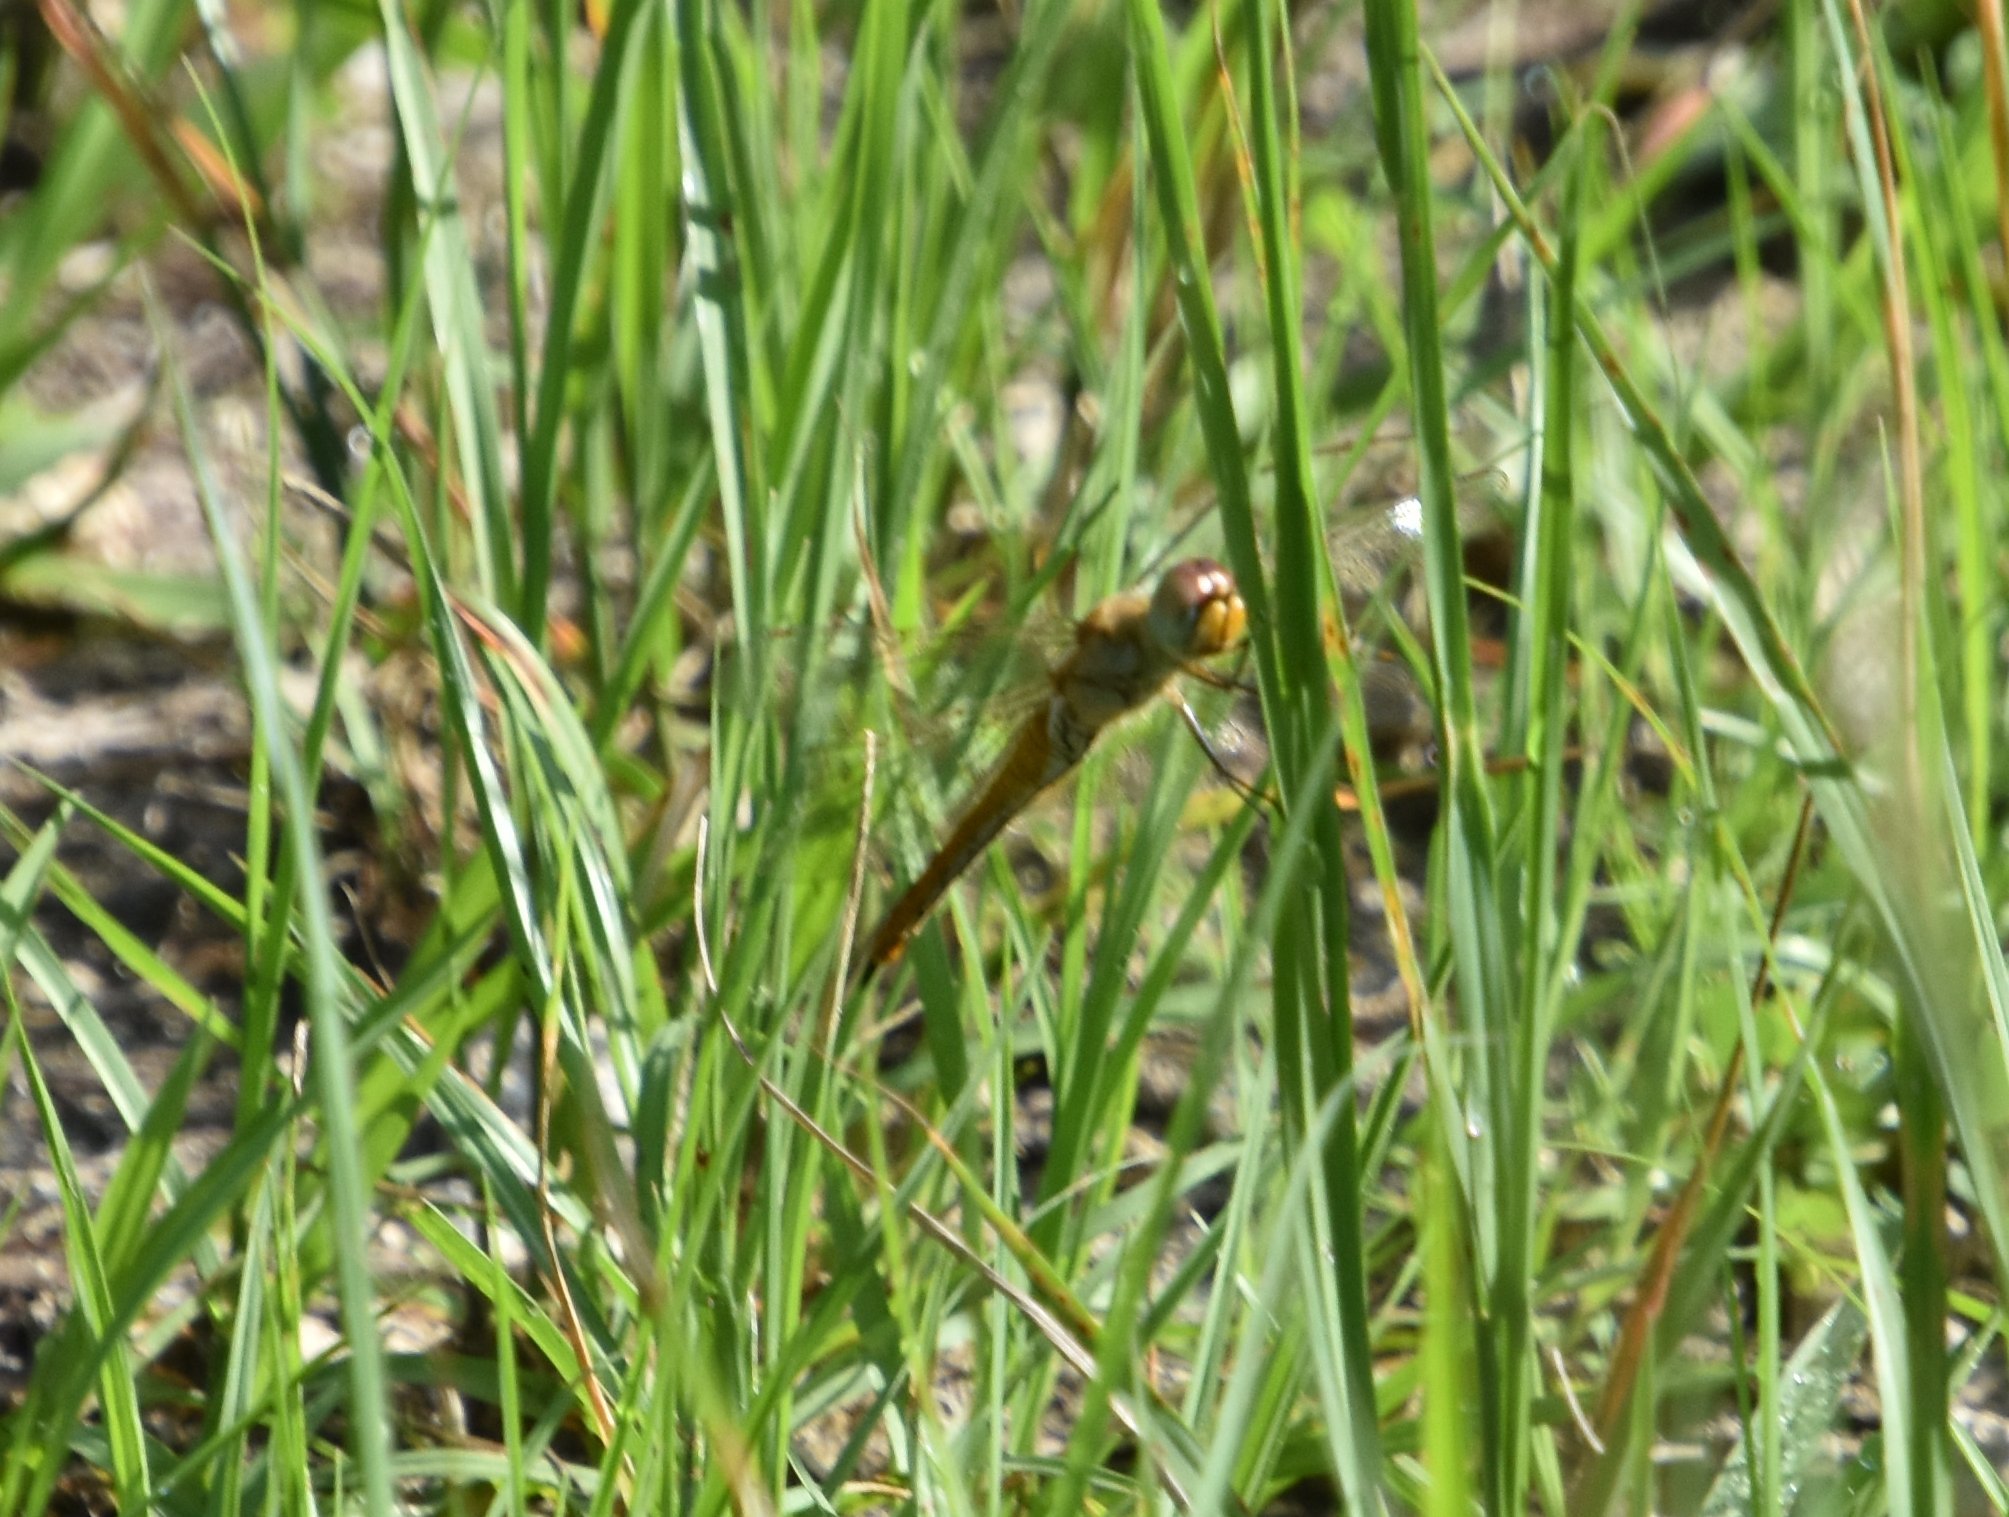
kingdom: Animalia
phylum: Arthropoda
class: Insecta
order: Odonata
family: Libellulidae
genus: Pantala
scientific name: Pantala flavescens
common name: Wandering glider
